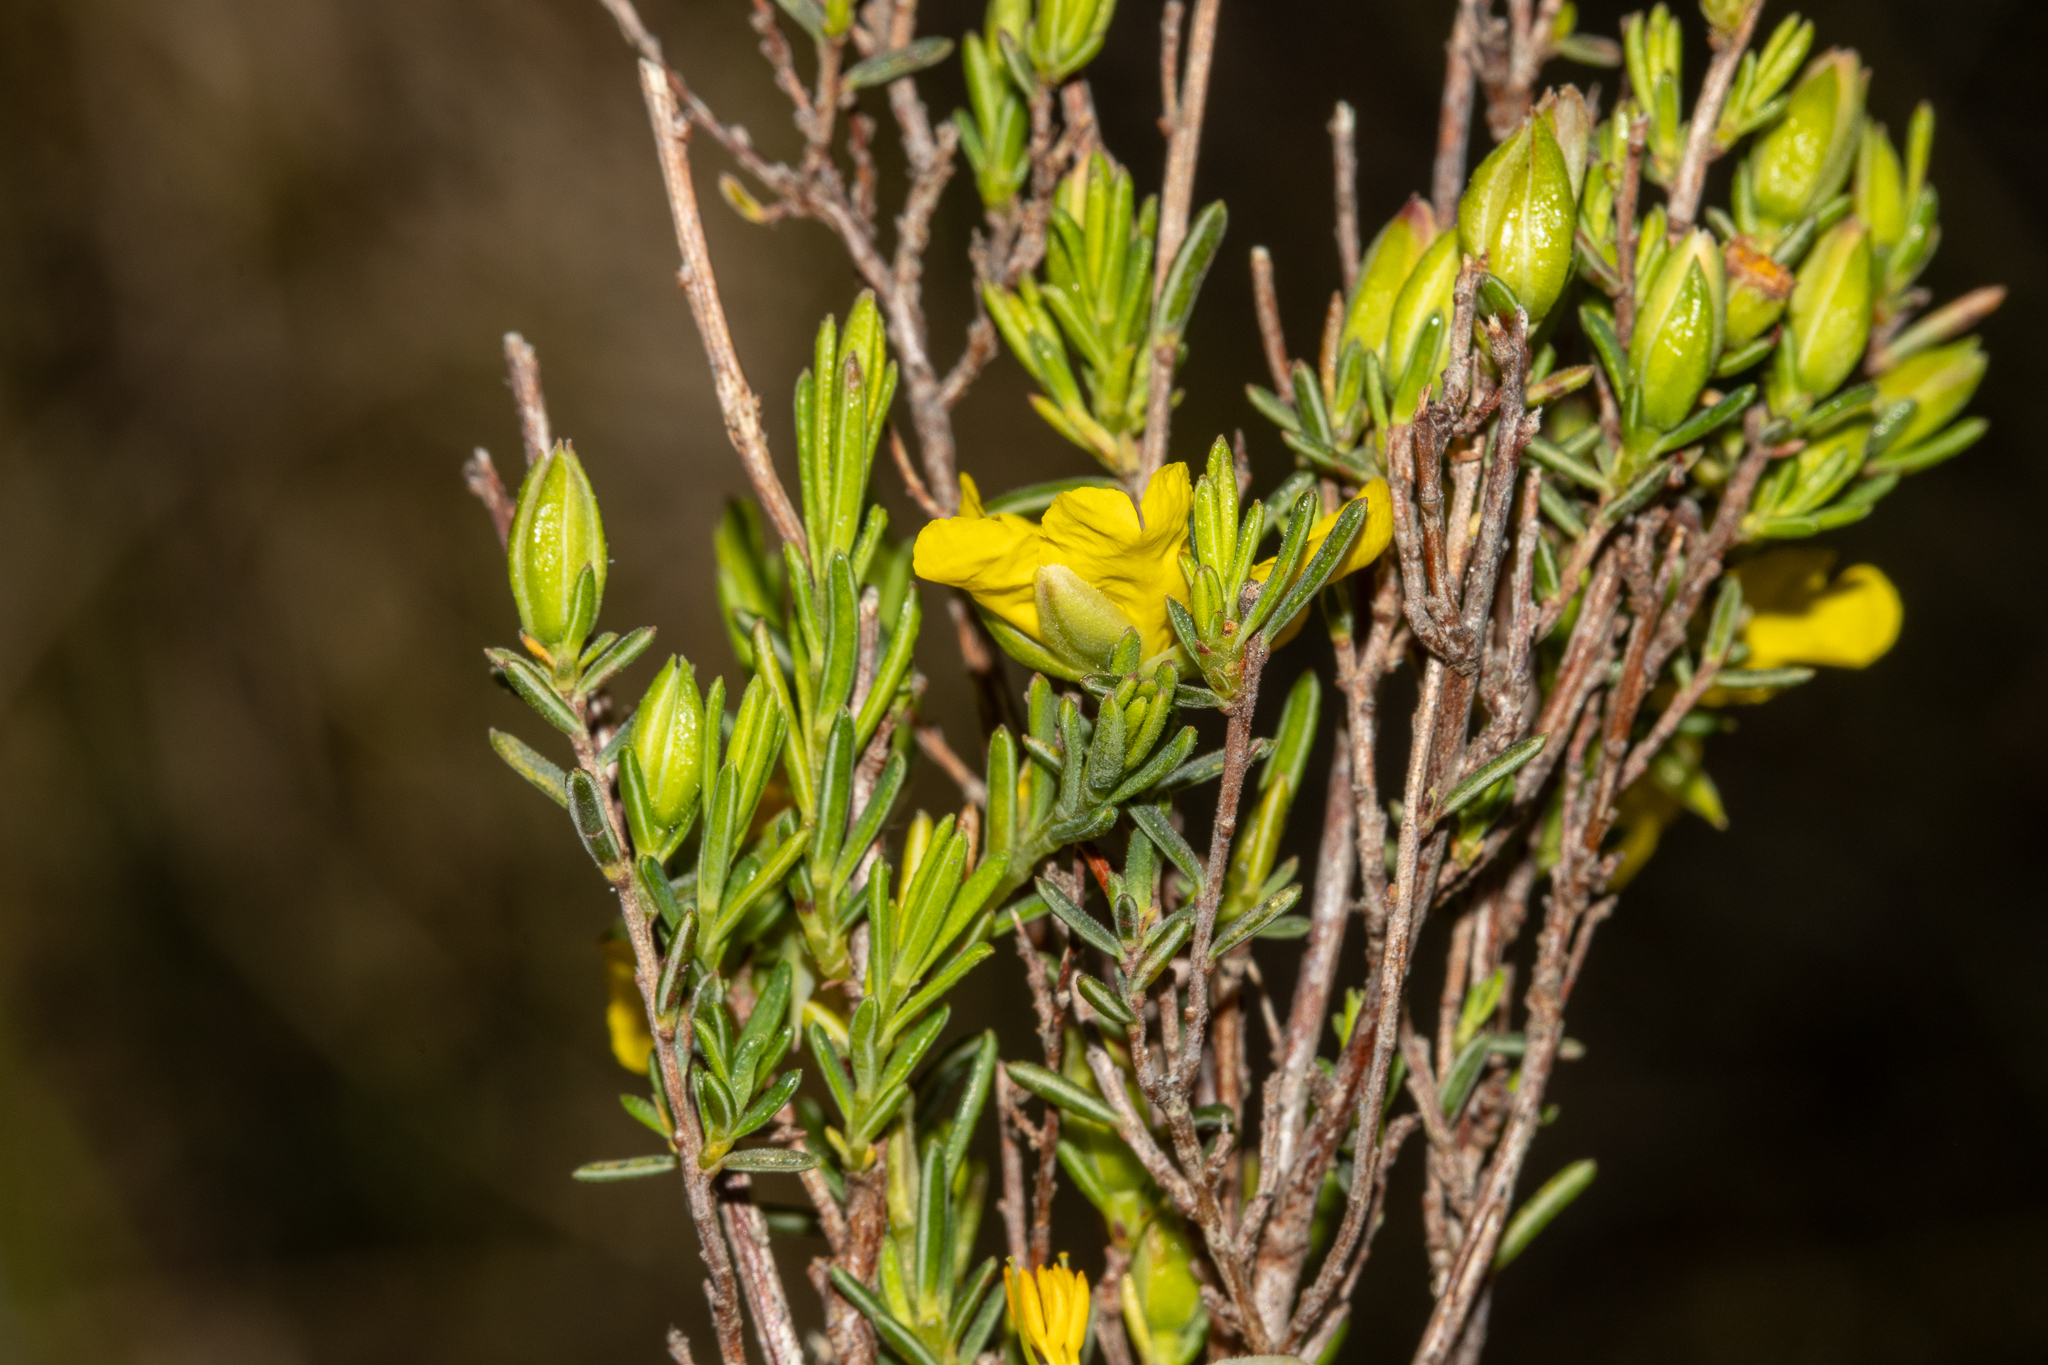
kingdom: Plantae
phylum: Tracheophyta
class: Magnoliopsida
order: Dilleniales
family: Dilleniaceae
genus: Hibbertia
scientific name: Hibbertia devitata
